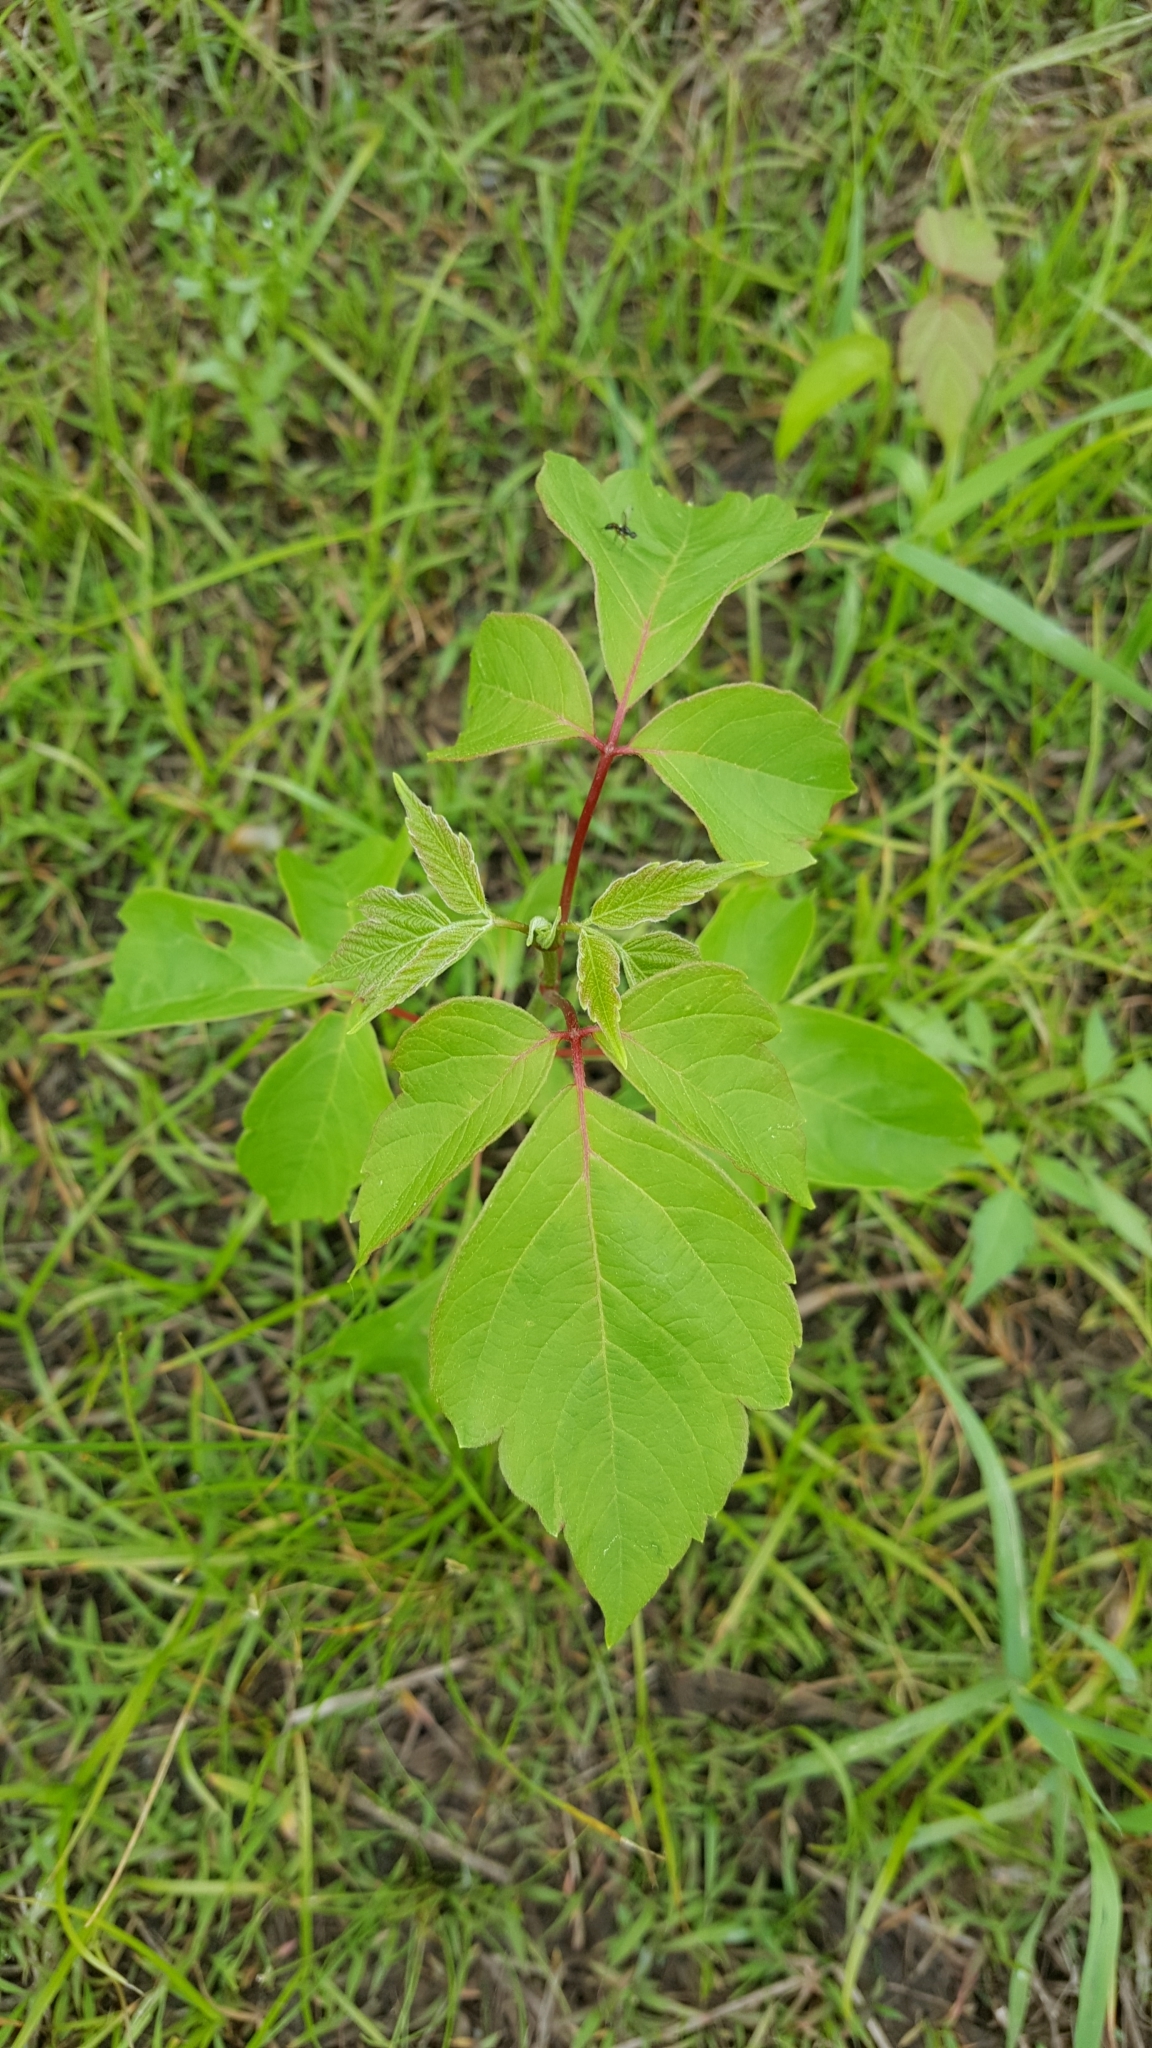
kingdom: Plantae
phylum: Tracheophyta
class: Magnoliopsida
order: Sapindales
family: Sapindaceae
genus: Acer
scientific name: Acer negundo
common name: Ashleaf maple
